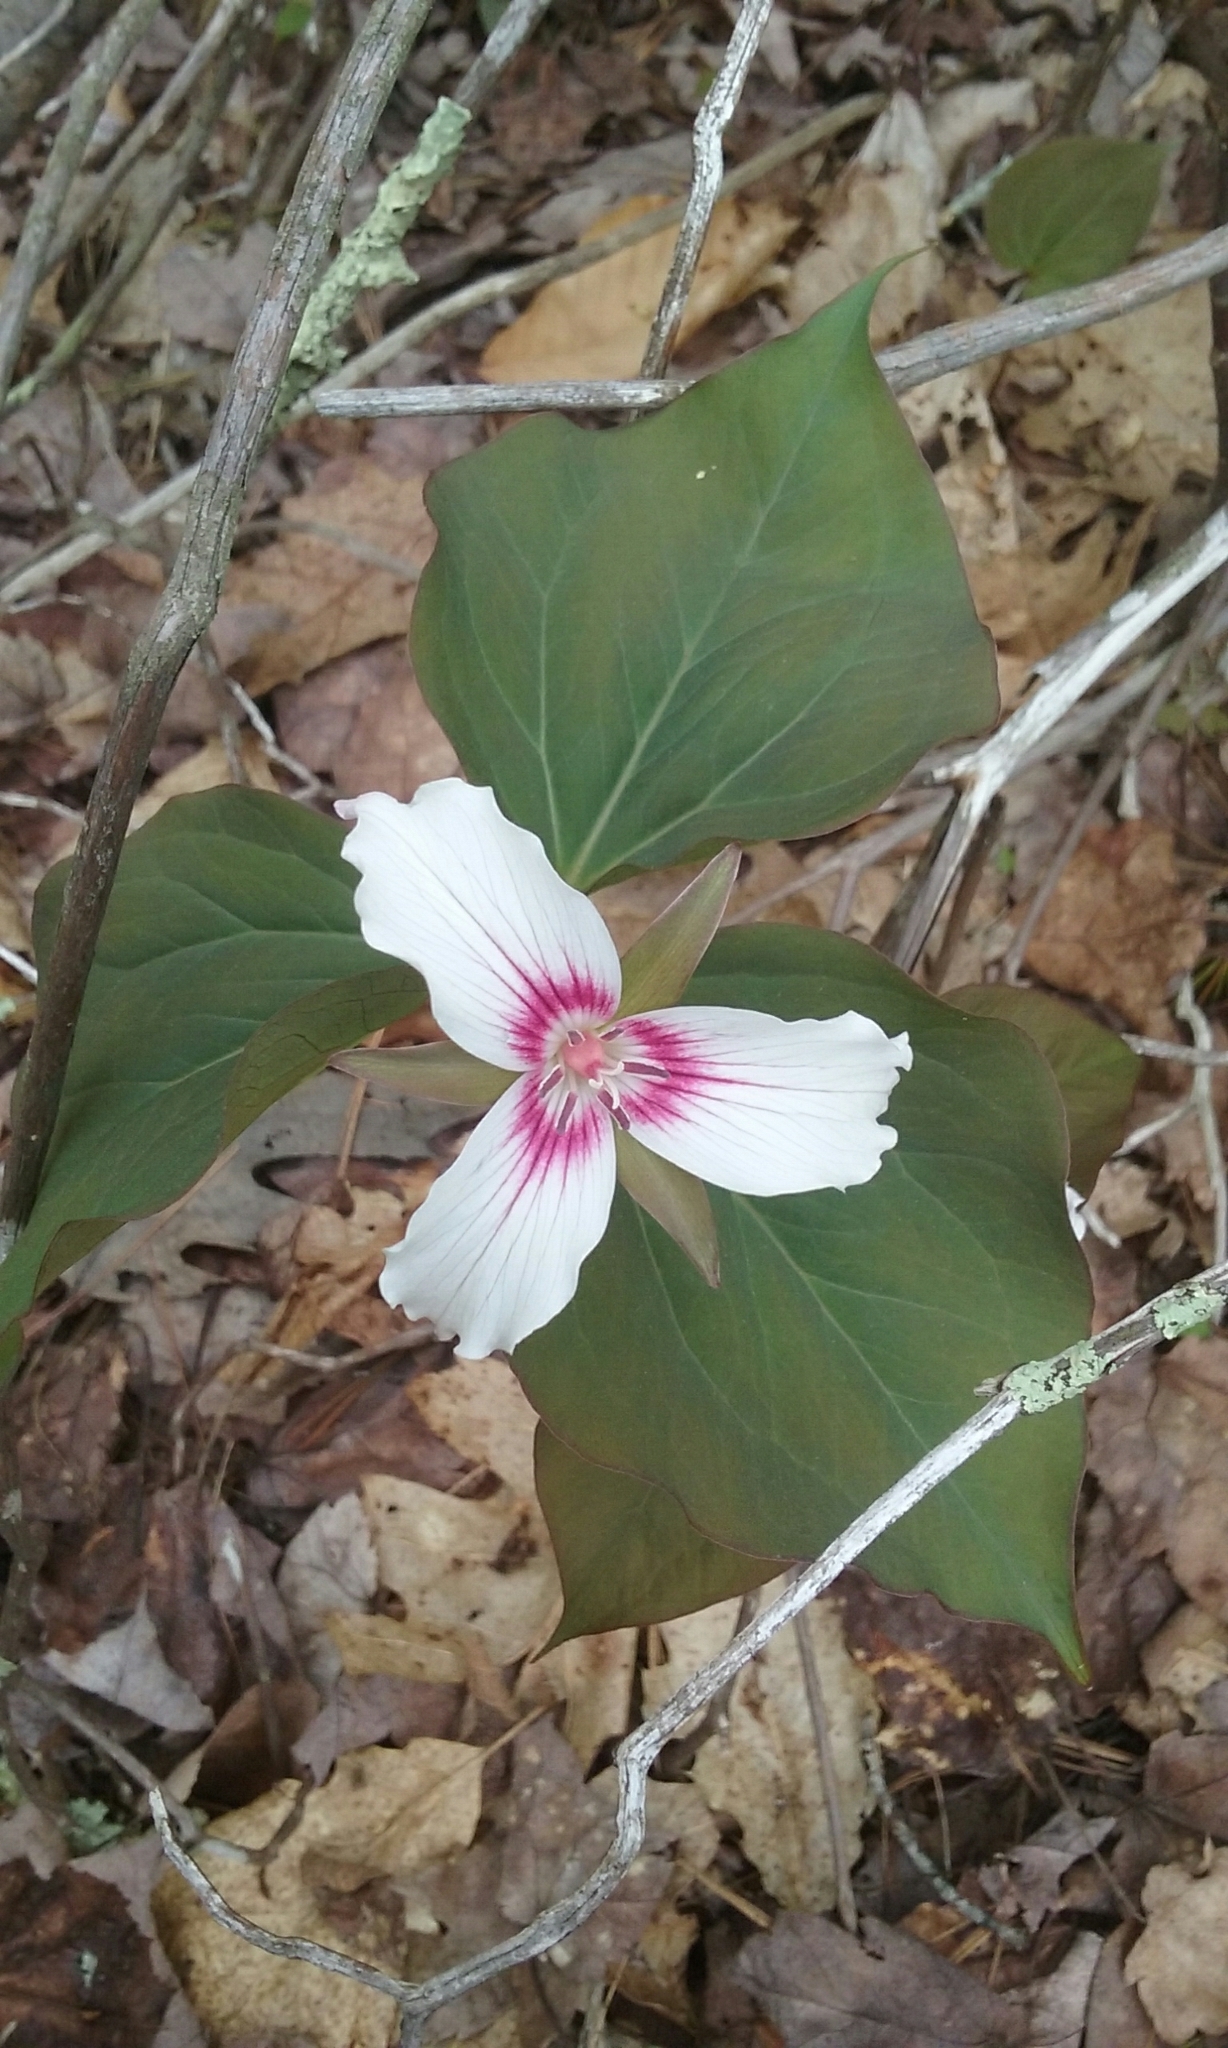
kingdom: Plantae
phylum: Tracheophyta
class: Liliopsida
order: Liliales
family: Melanthiaceae
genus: Trillium
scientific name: Trillium undulatum
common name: Paint trillium
